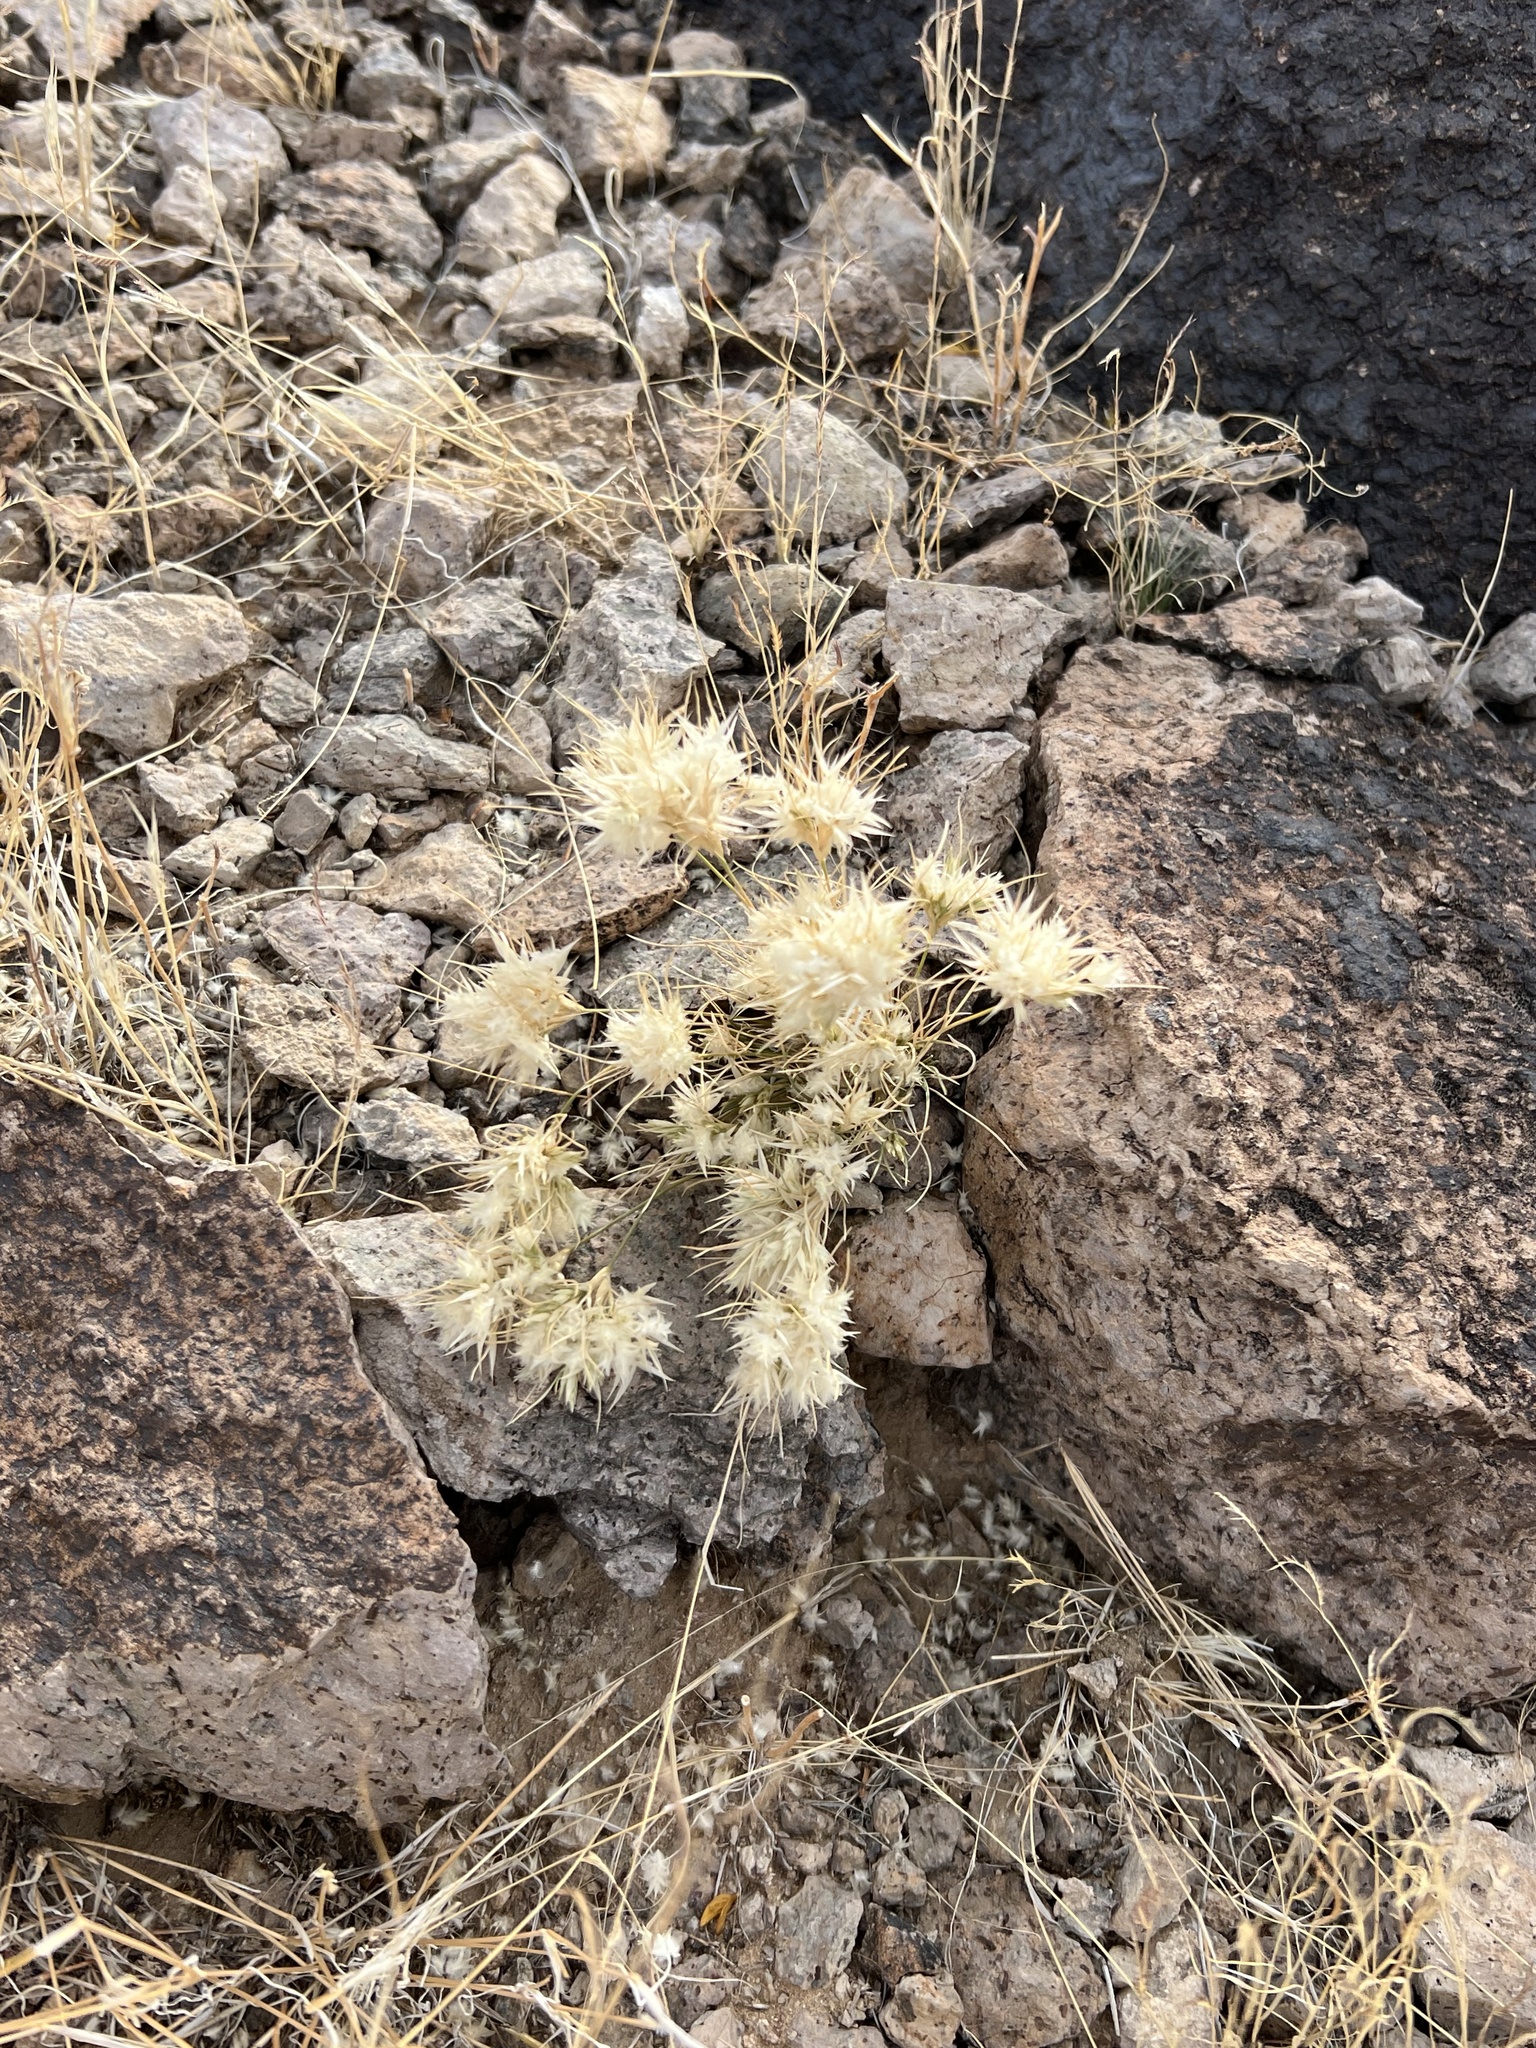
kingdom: Plantae
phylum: Tracheophyta
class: Liliopsida
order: Poales
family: Poaceae
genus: Dasyochloa
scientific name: Dasyochloa pulchella
